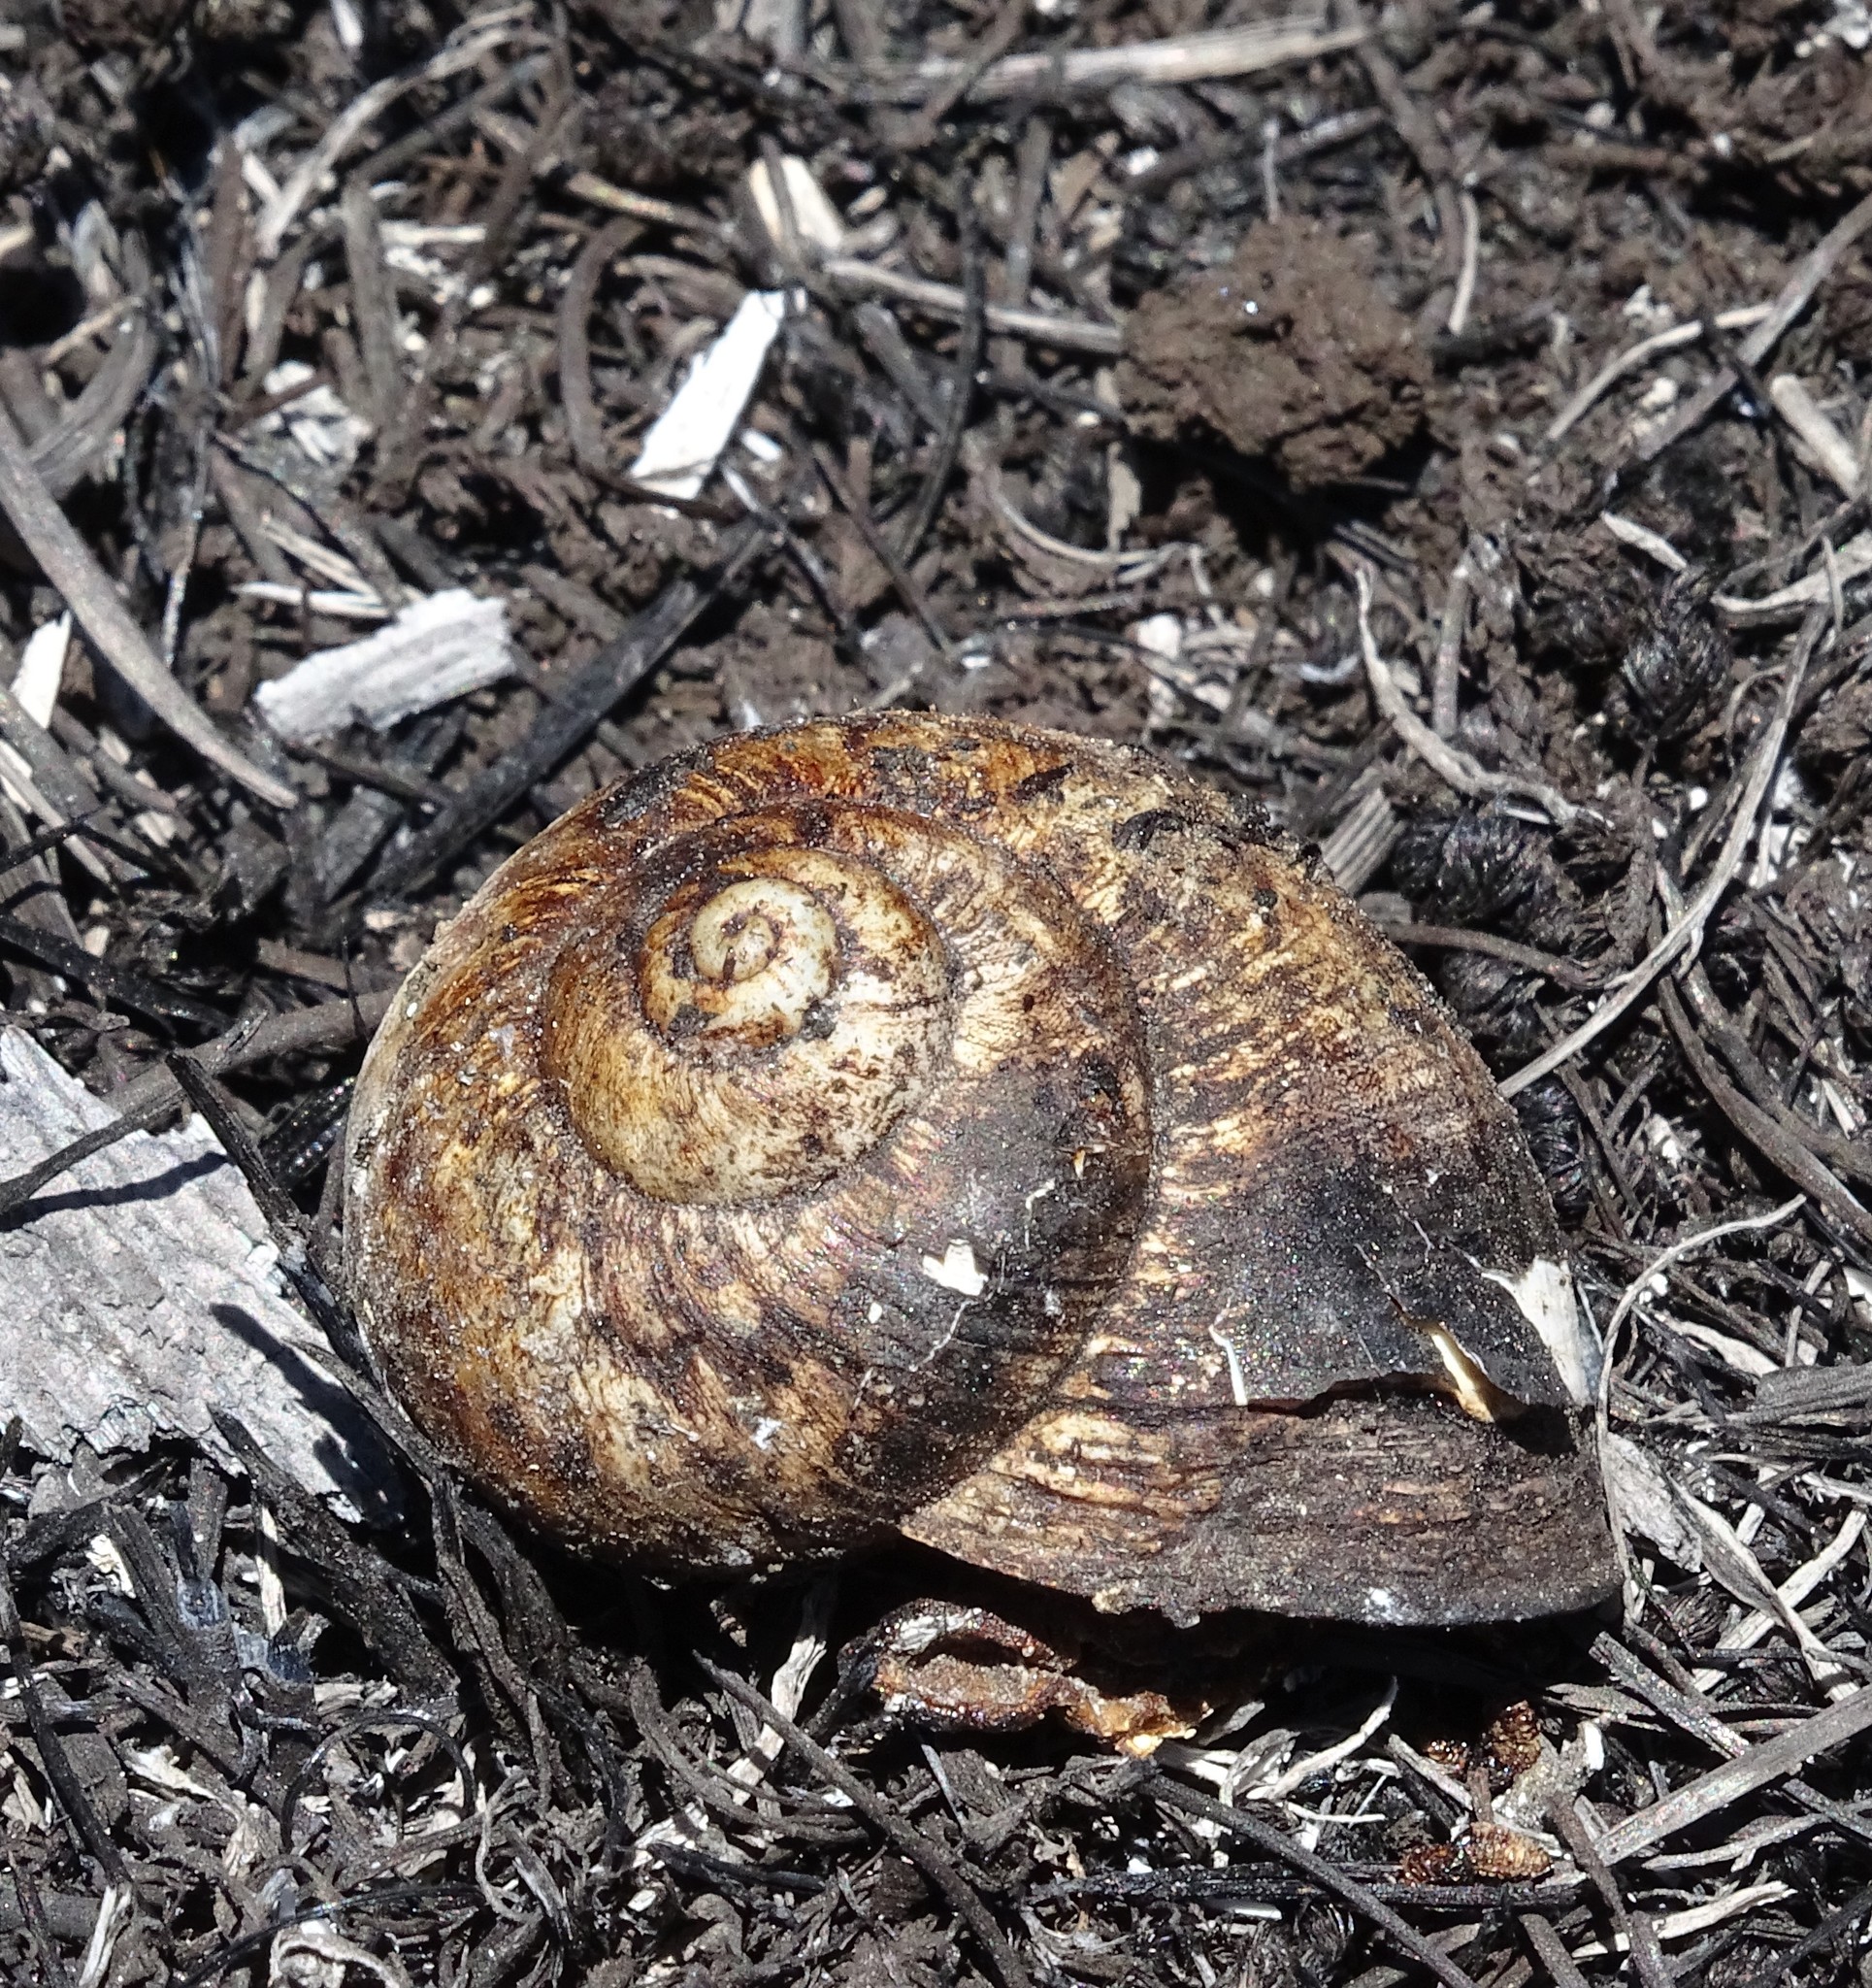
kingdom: Animalia
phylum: Mollusca
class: Gastropoda
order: Stylommatophora
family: Helicidae
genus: Cornu
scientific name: Cornu aspersum
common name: Brown garden snail
